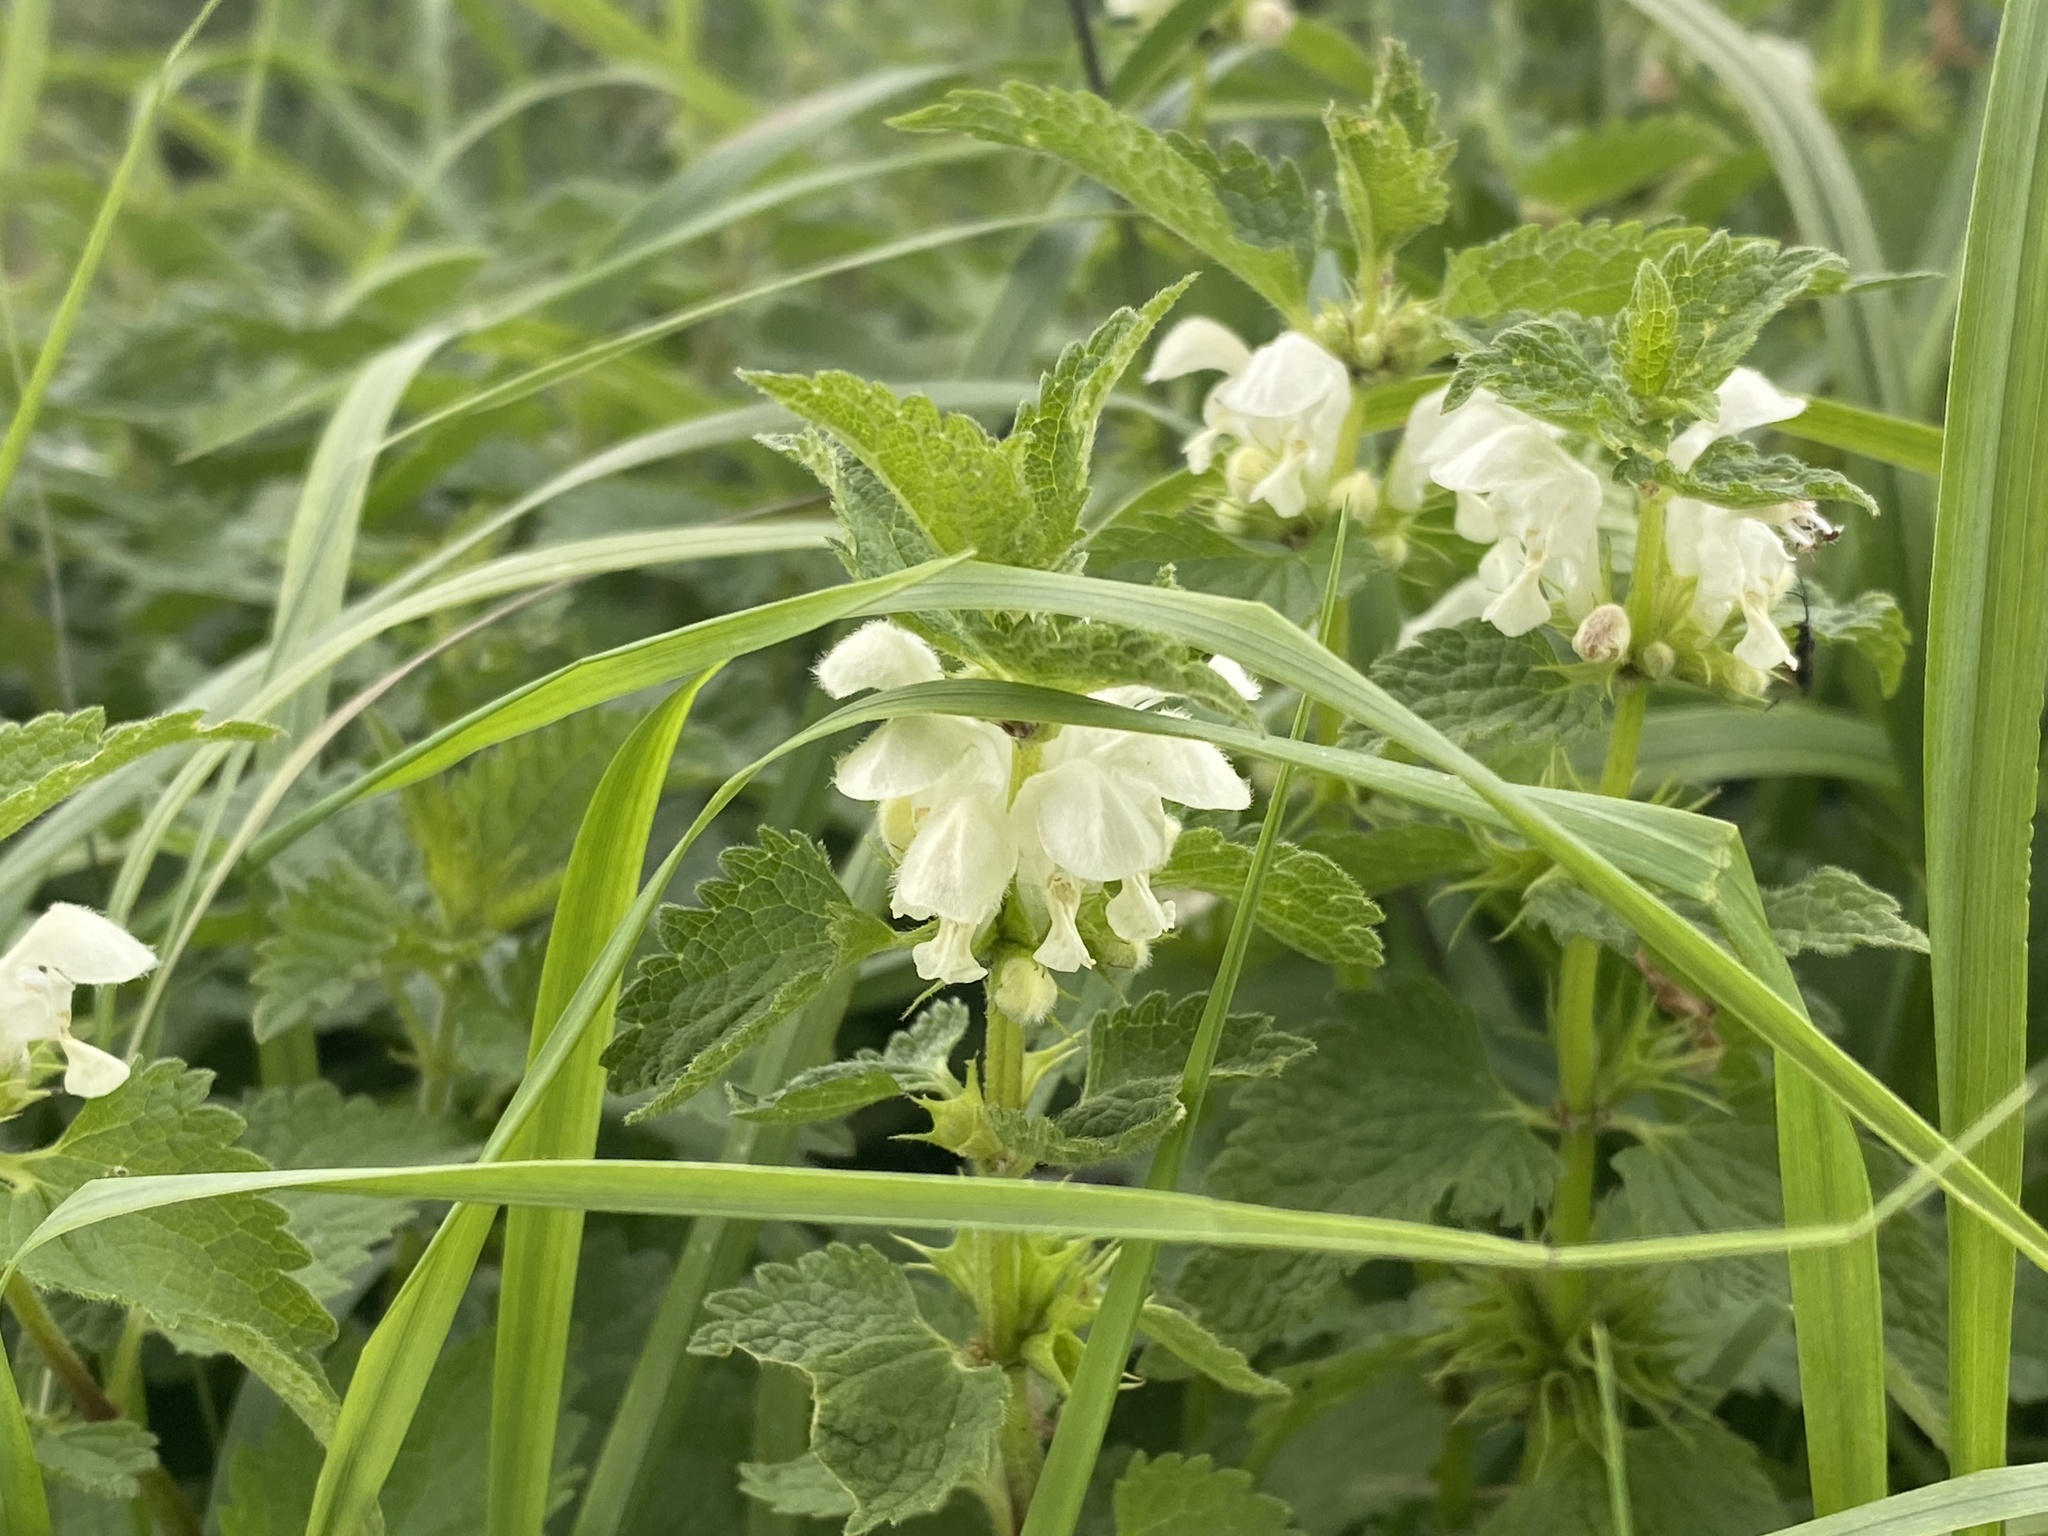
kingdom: Plantae
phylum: Tracheophyta
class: Magnoliopsida
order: Lamiales
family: Lamiaceae
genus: Lamium
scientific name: Lamium album
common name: White dead-nettle
